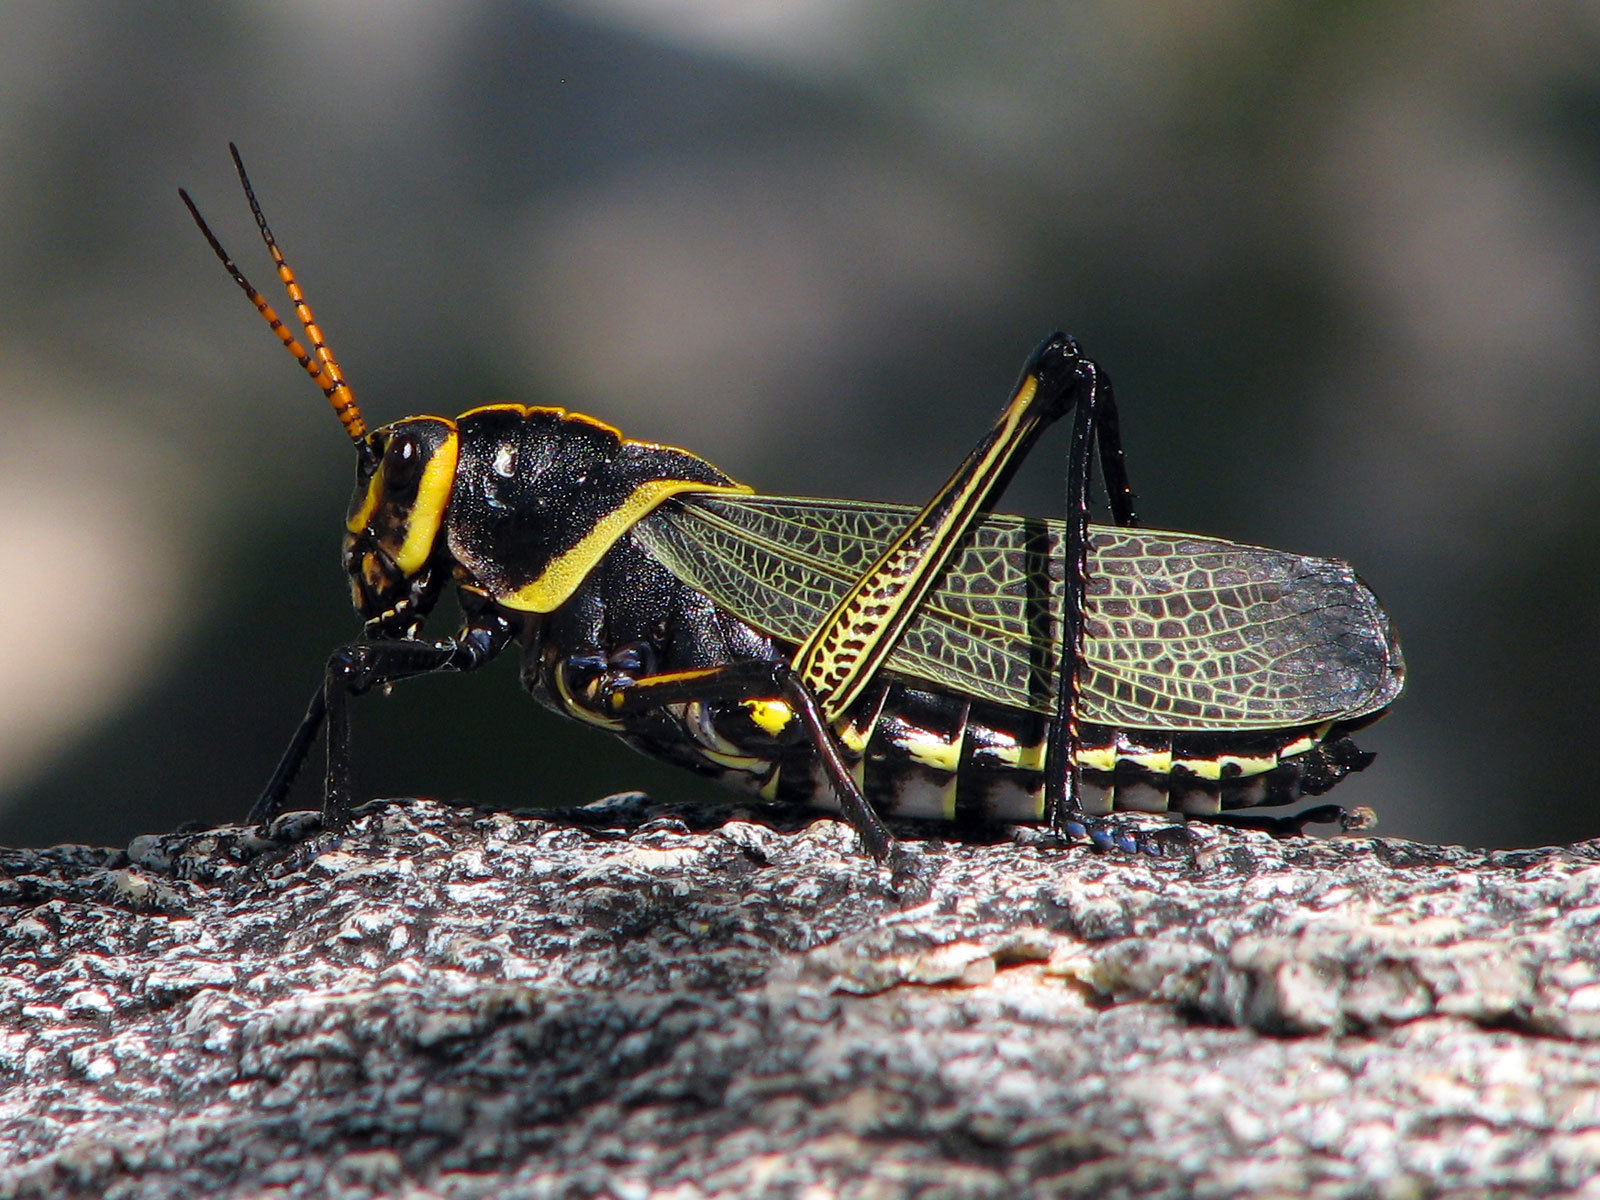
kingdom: Animalia
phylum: Arthropoda
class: Insecta
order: Orthoptera
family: Romaleidae
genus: Romalea
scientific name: Romalea
